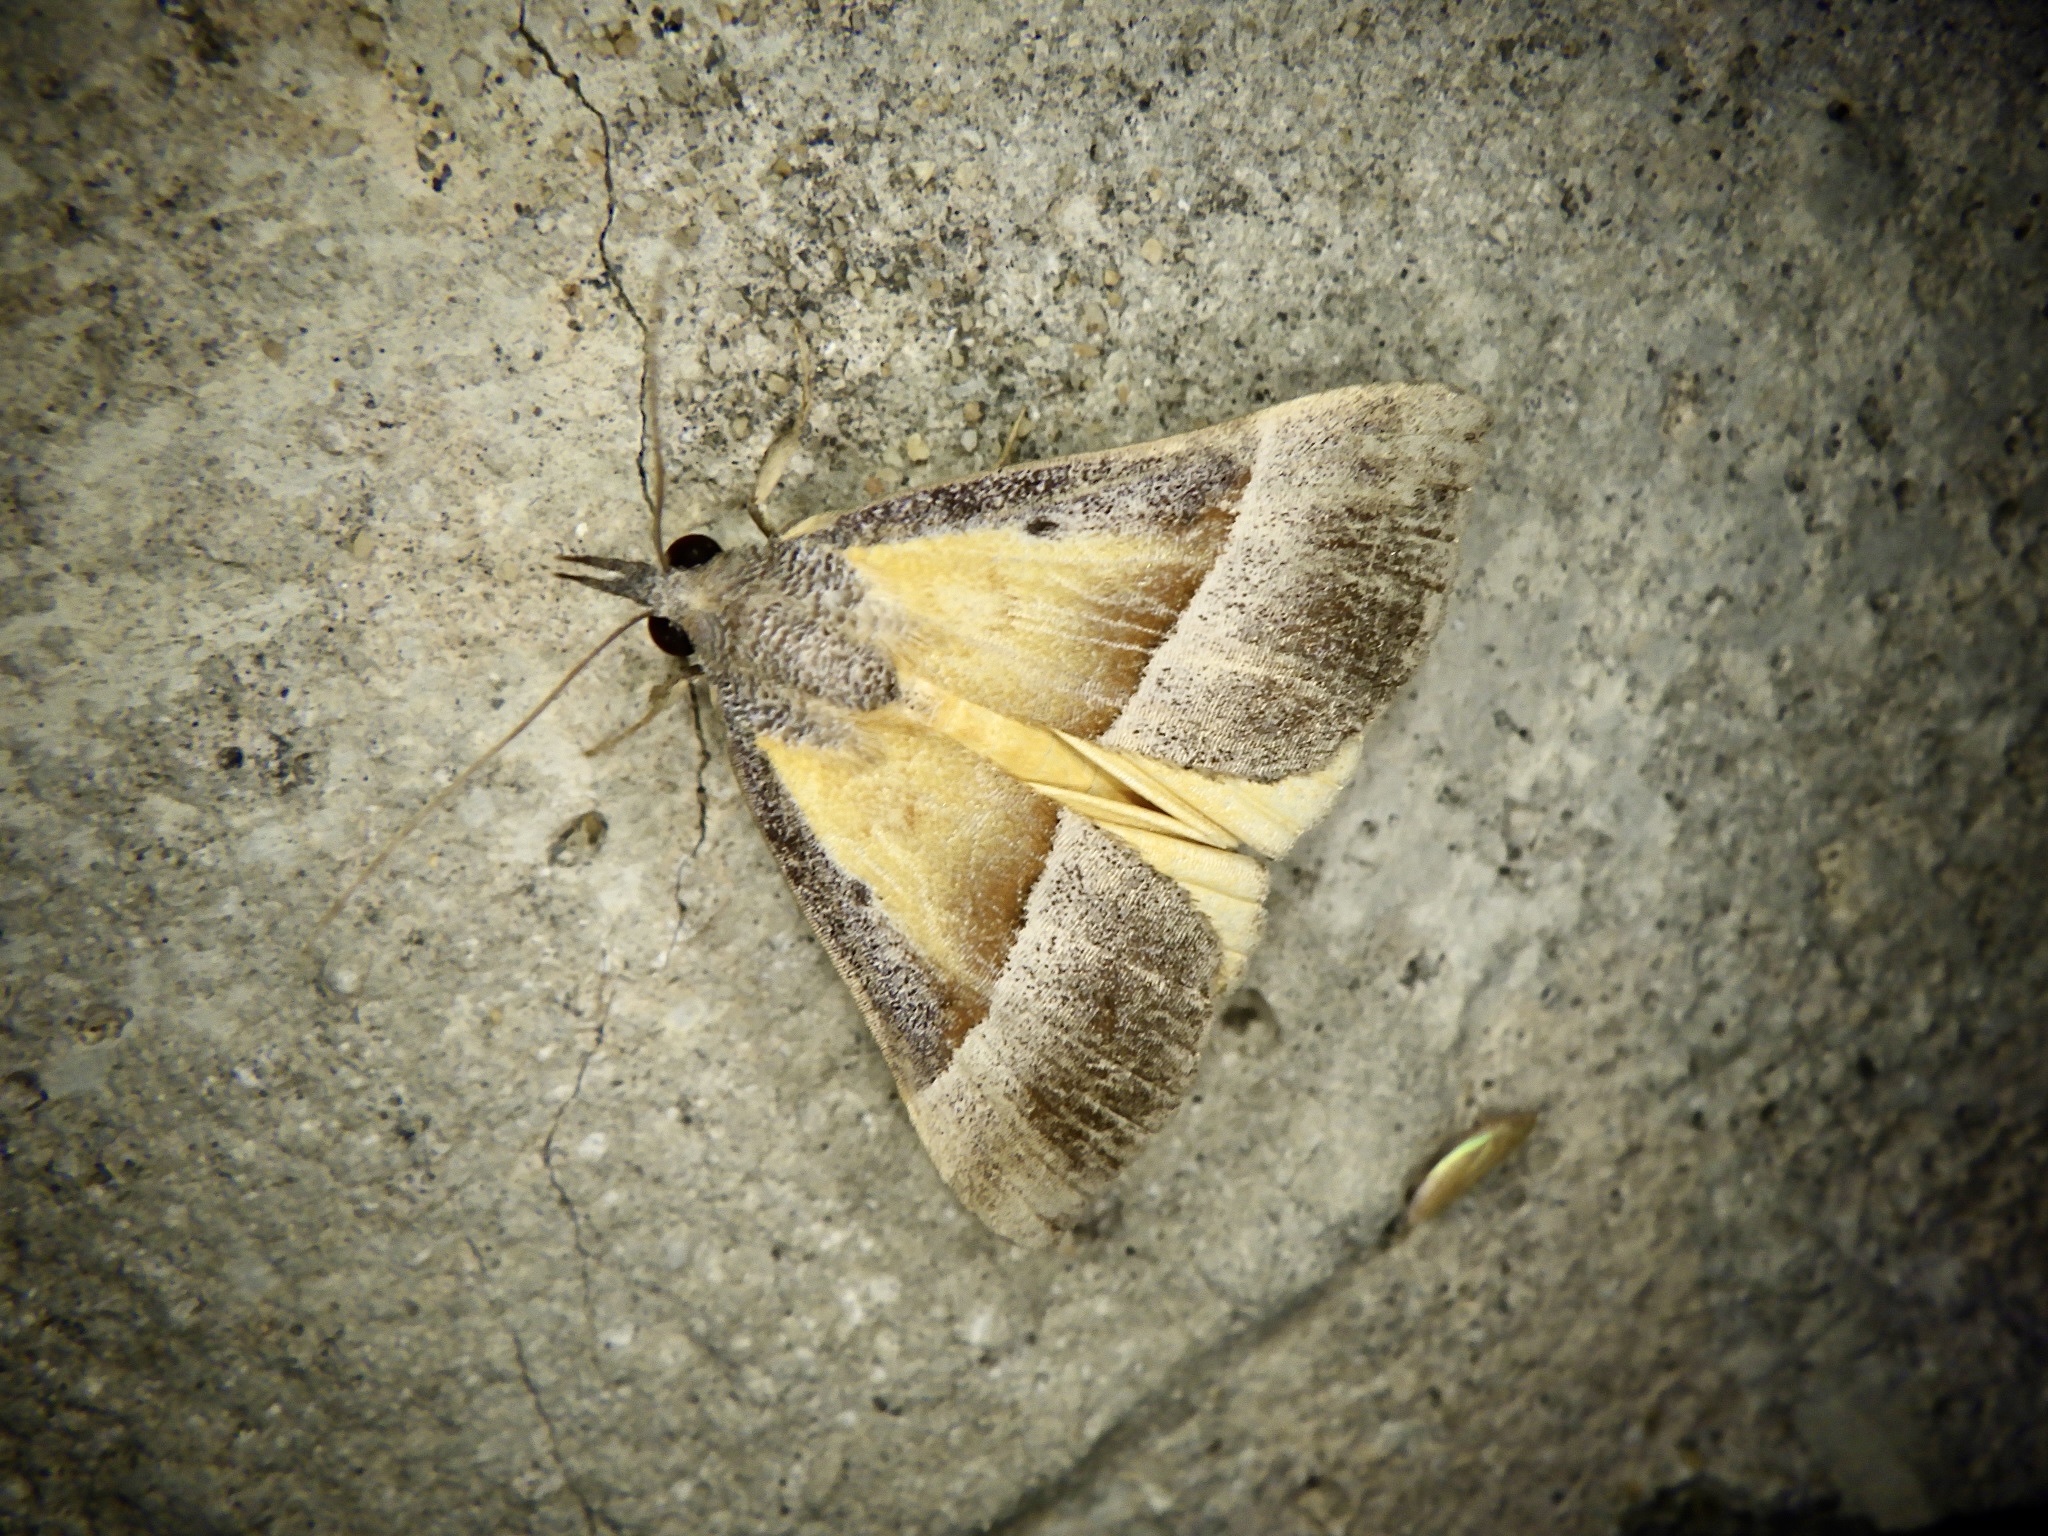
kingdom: Animalia
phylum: Arthropoda
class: Insecta
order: Lepidoptera
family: Erebidae
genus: Hypena
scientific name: Hypena claripennis
